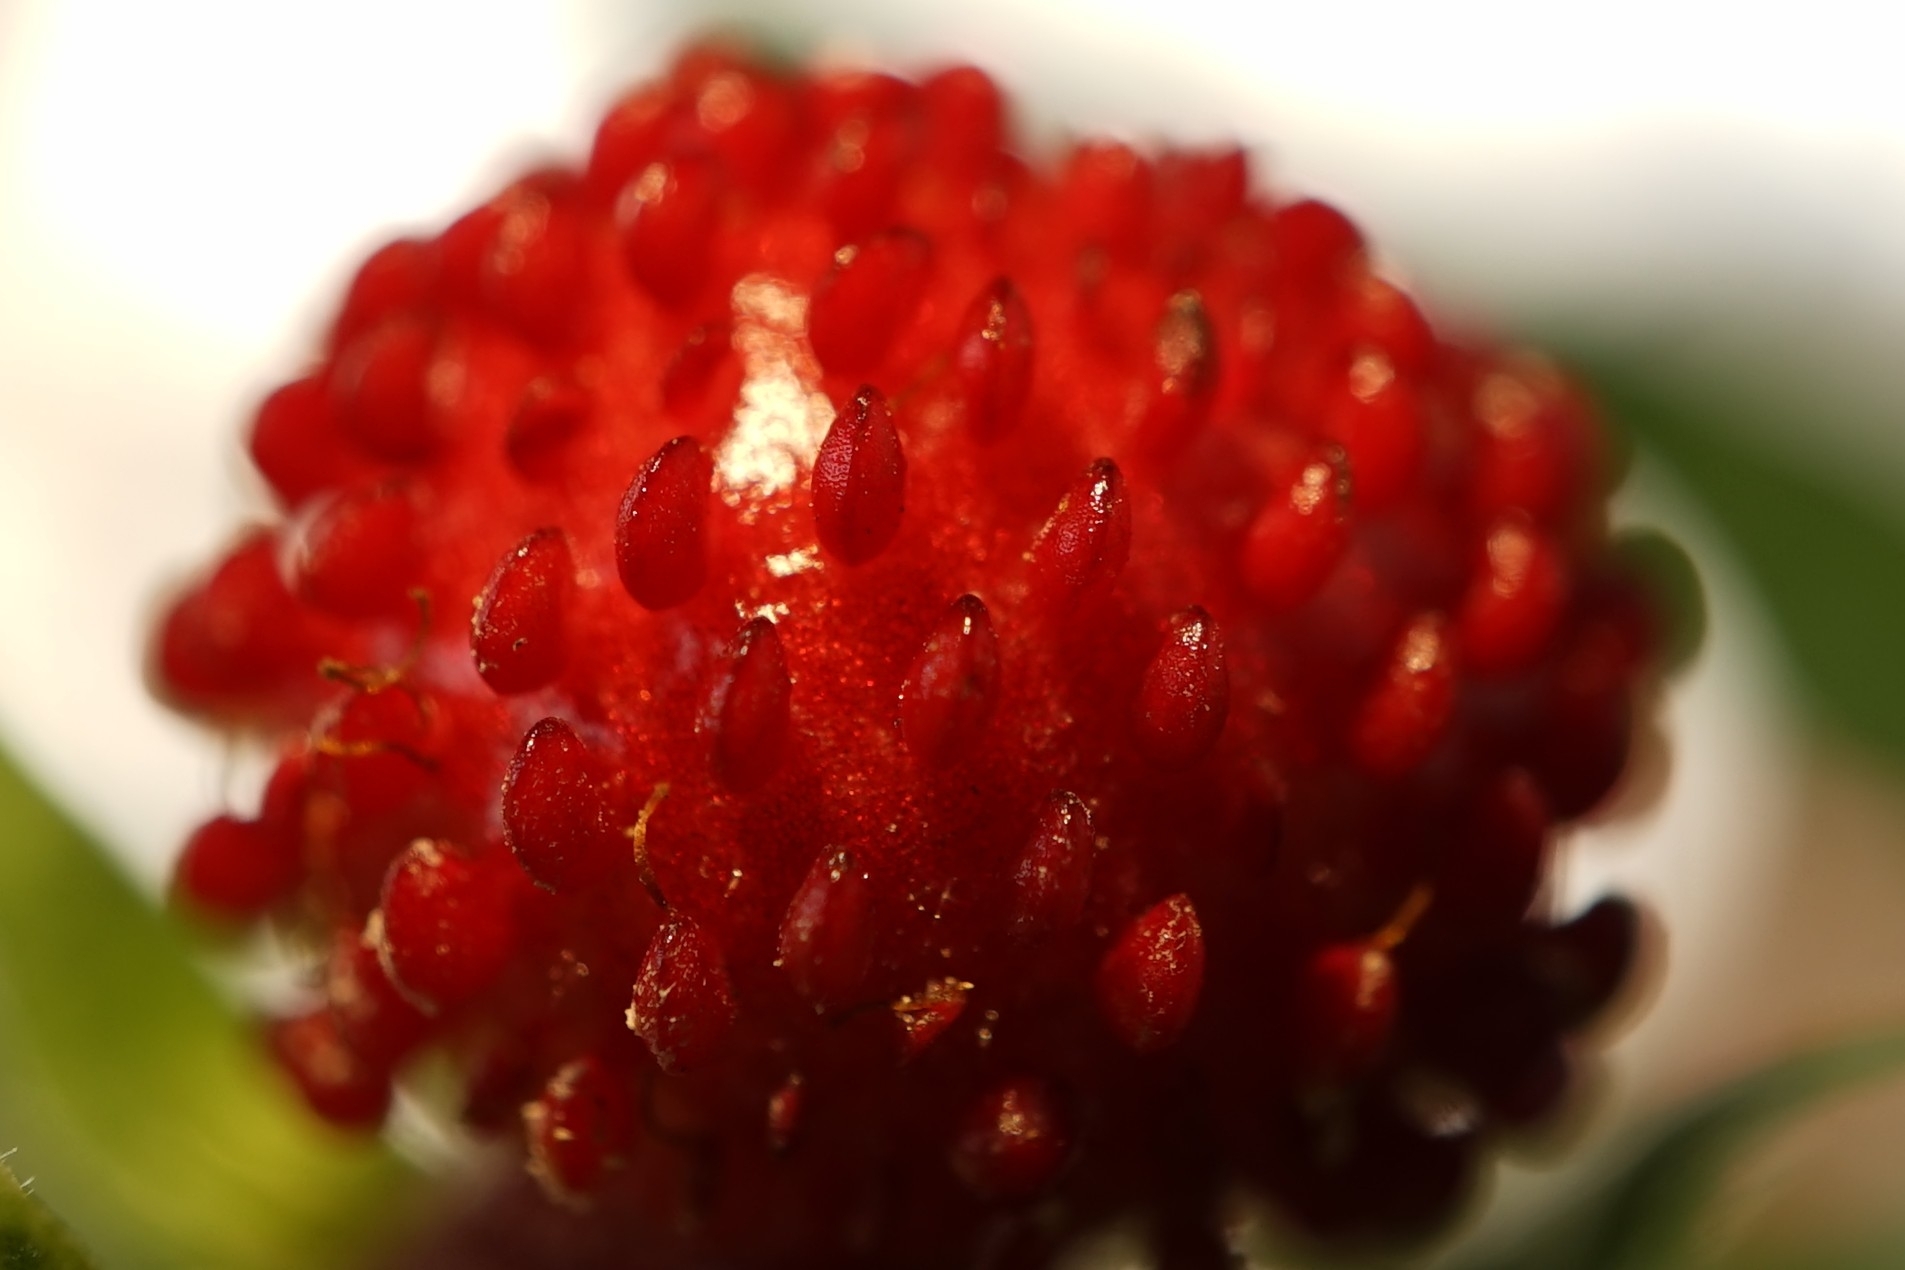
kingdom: Plantae
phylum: Tracheophyta
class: Magnoliopsida
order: Rosales
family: Rosaceae
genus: Potentilla
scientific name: Potentilla indica
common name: Yellow-flowered strawberry
